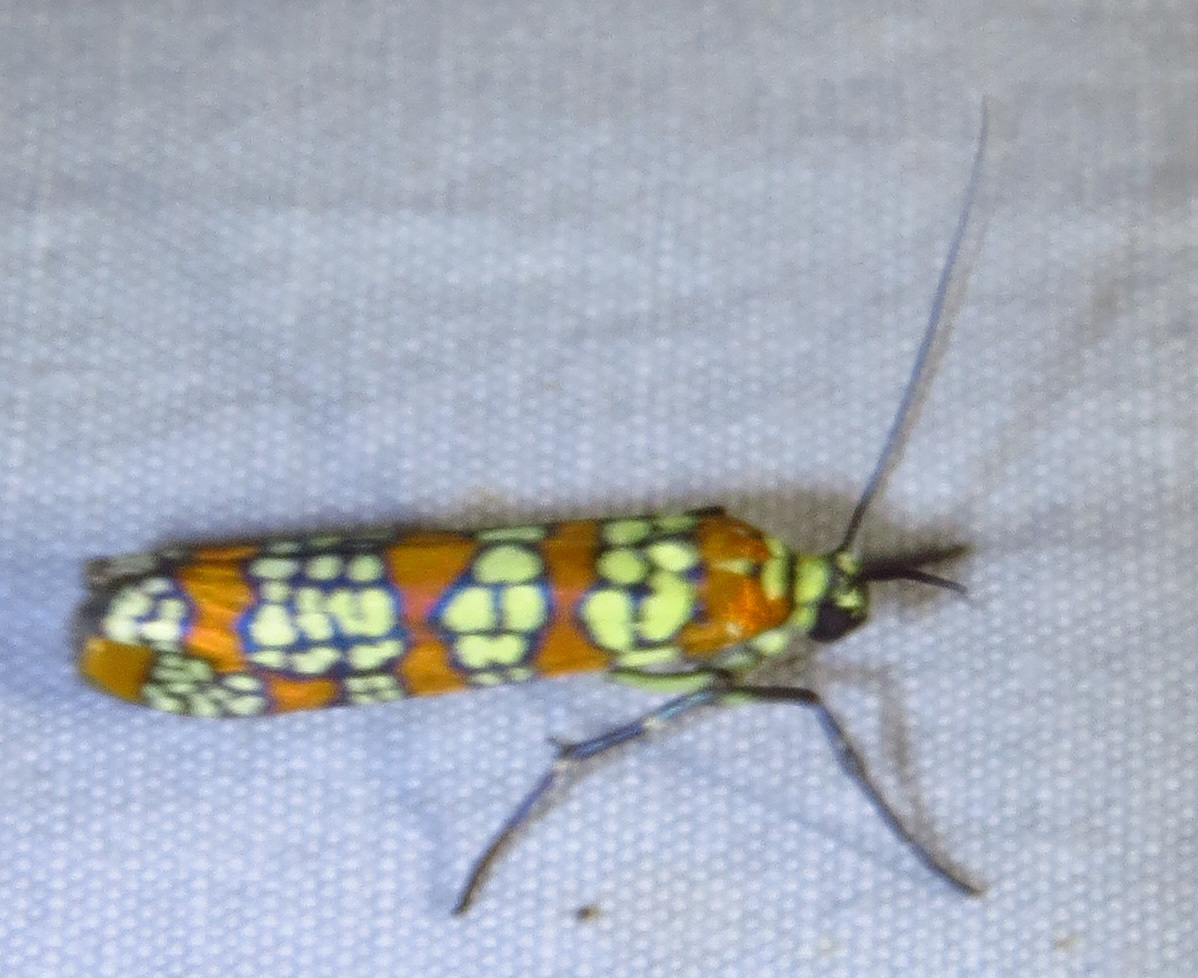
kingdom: Animalia
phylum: Arthropoda
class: Insecta
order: Lepidoptera
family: Attevidae
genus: Atteva
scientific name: Atteva punctella
